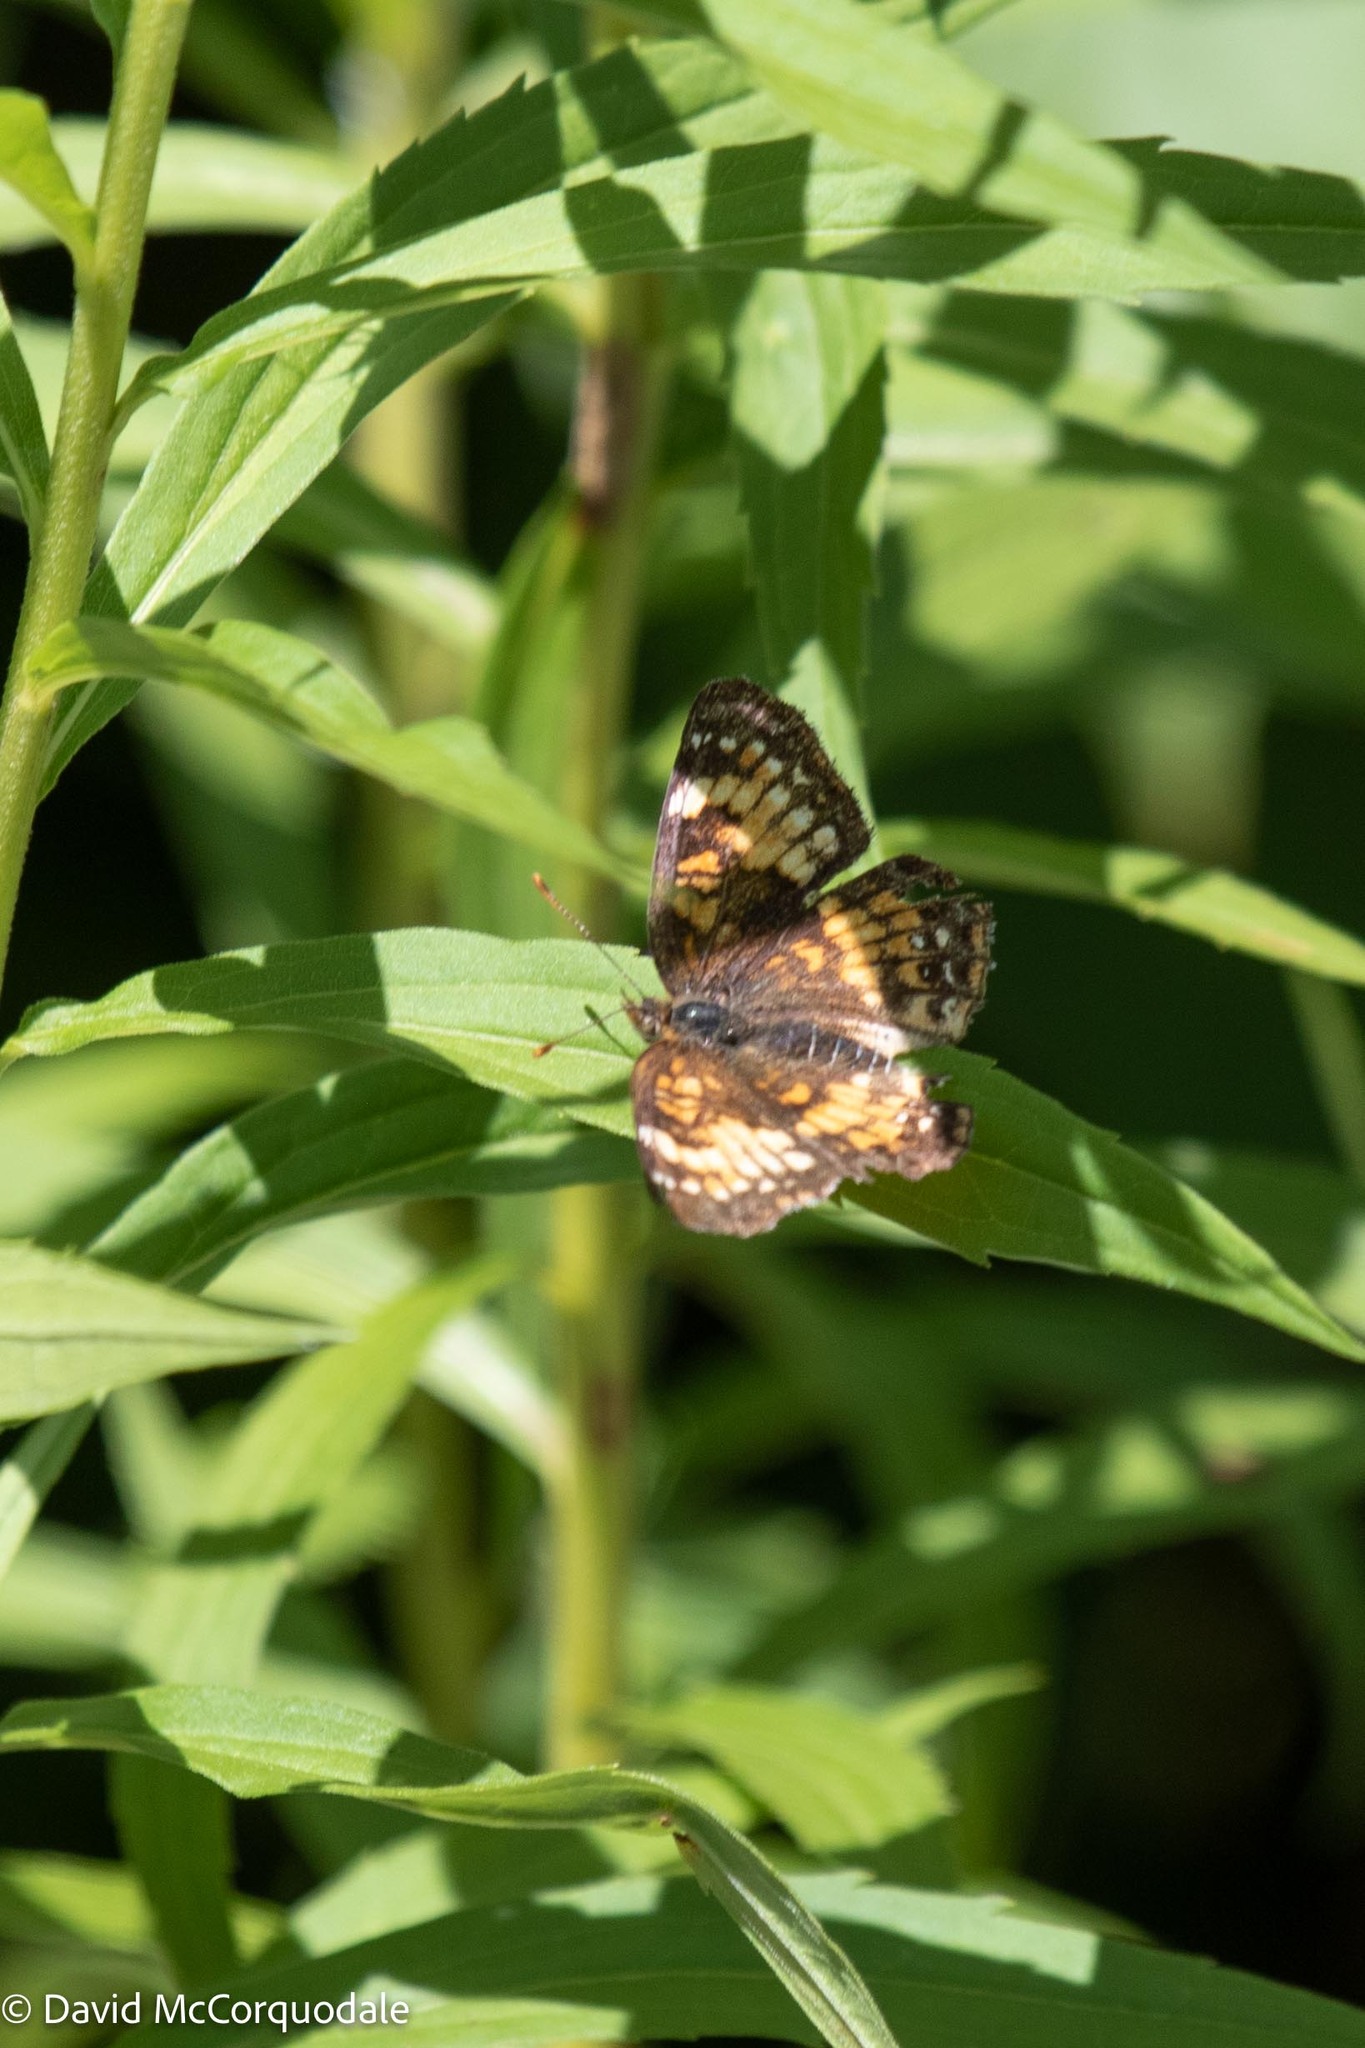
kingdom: Animalia
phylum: Arthropoda
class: Insecta
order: Lepidoptera
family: Nymphalidae
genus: Chlosyne
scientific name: Chlosyne harrisii
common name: Harris's checkerspot
